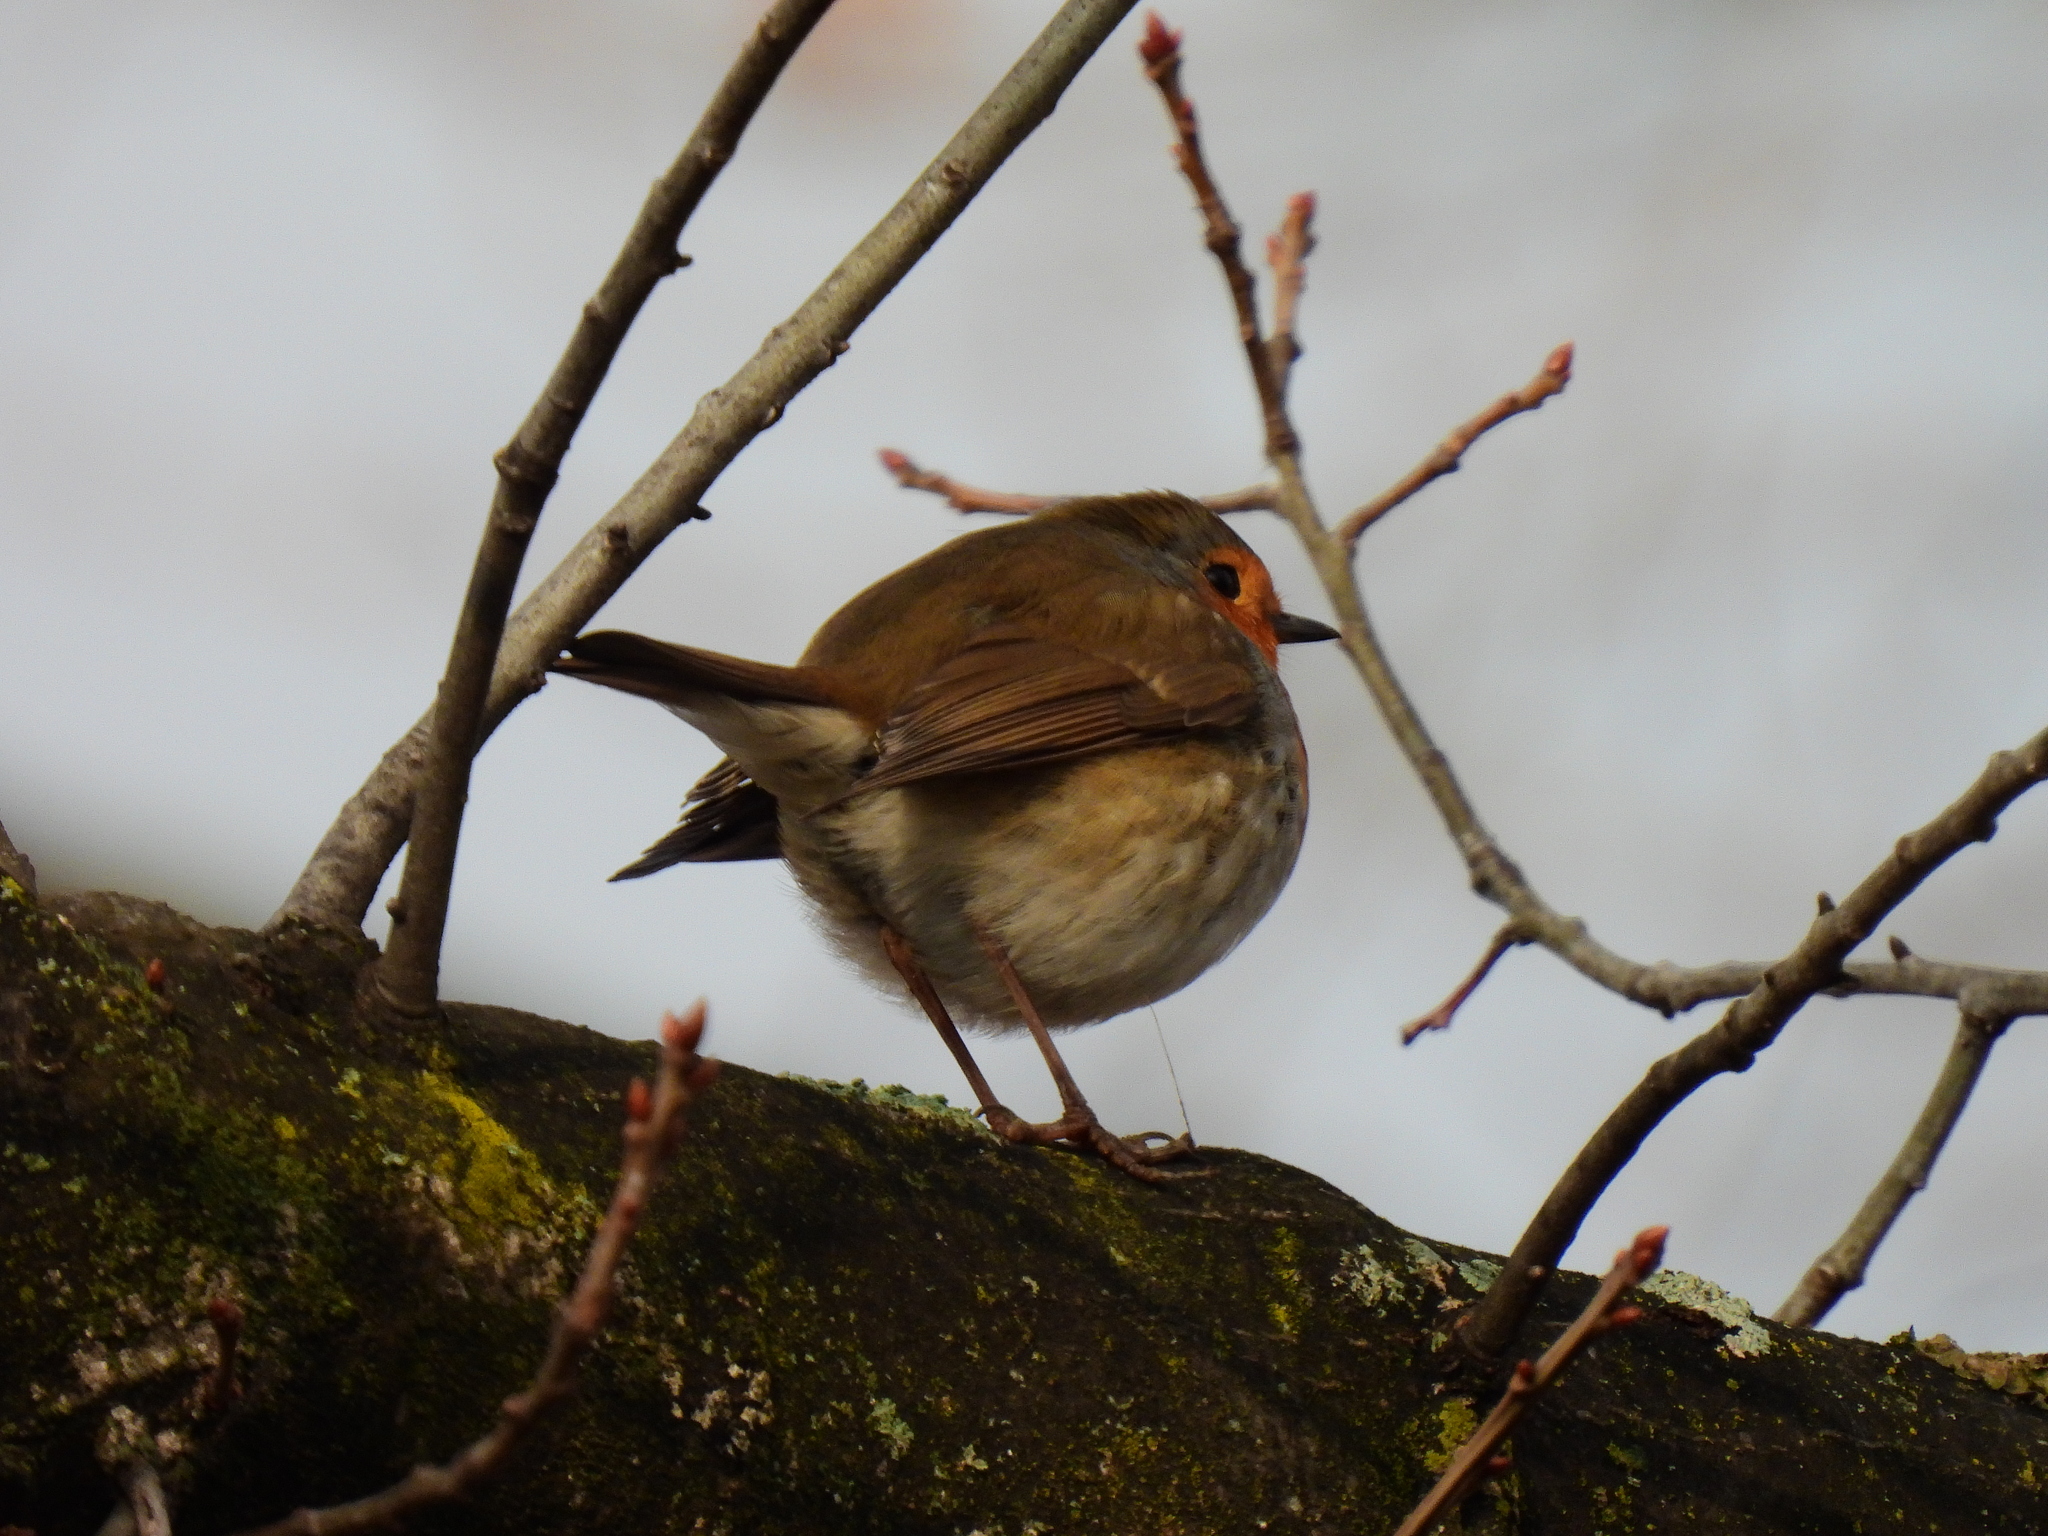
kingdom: Animalia
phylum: Chordata
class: Aves
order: Passeriformes
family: Muscicapidae
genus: Erithacus
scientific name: Erithacus rubecula
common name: European robin
